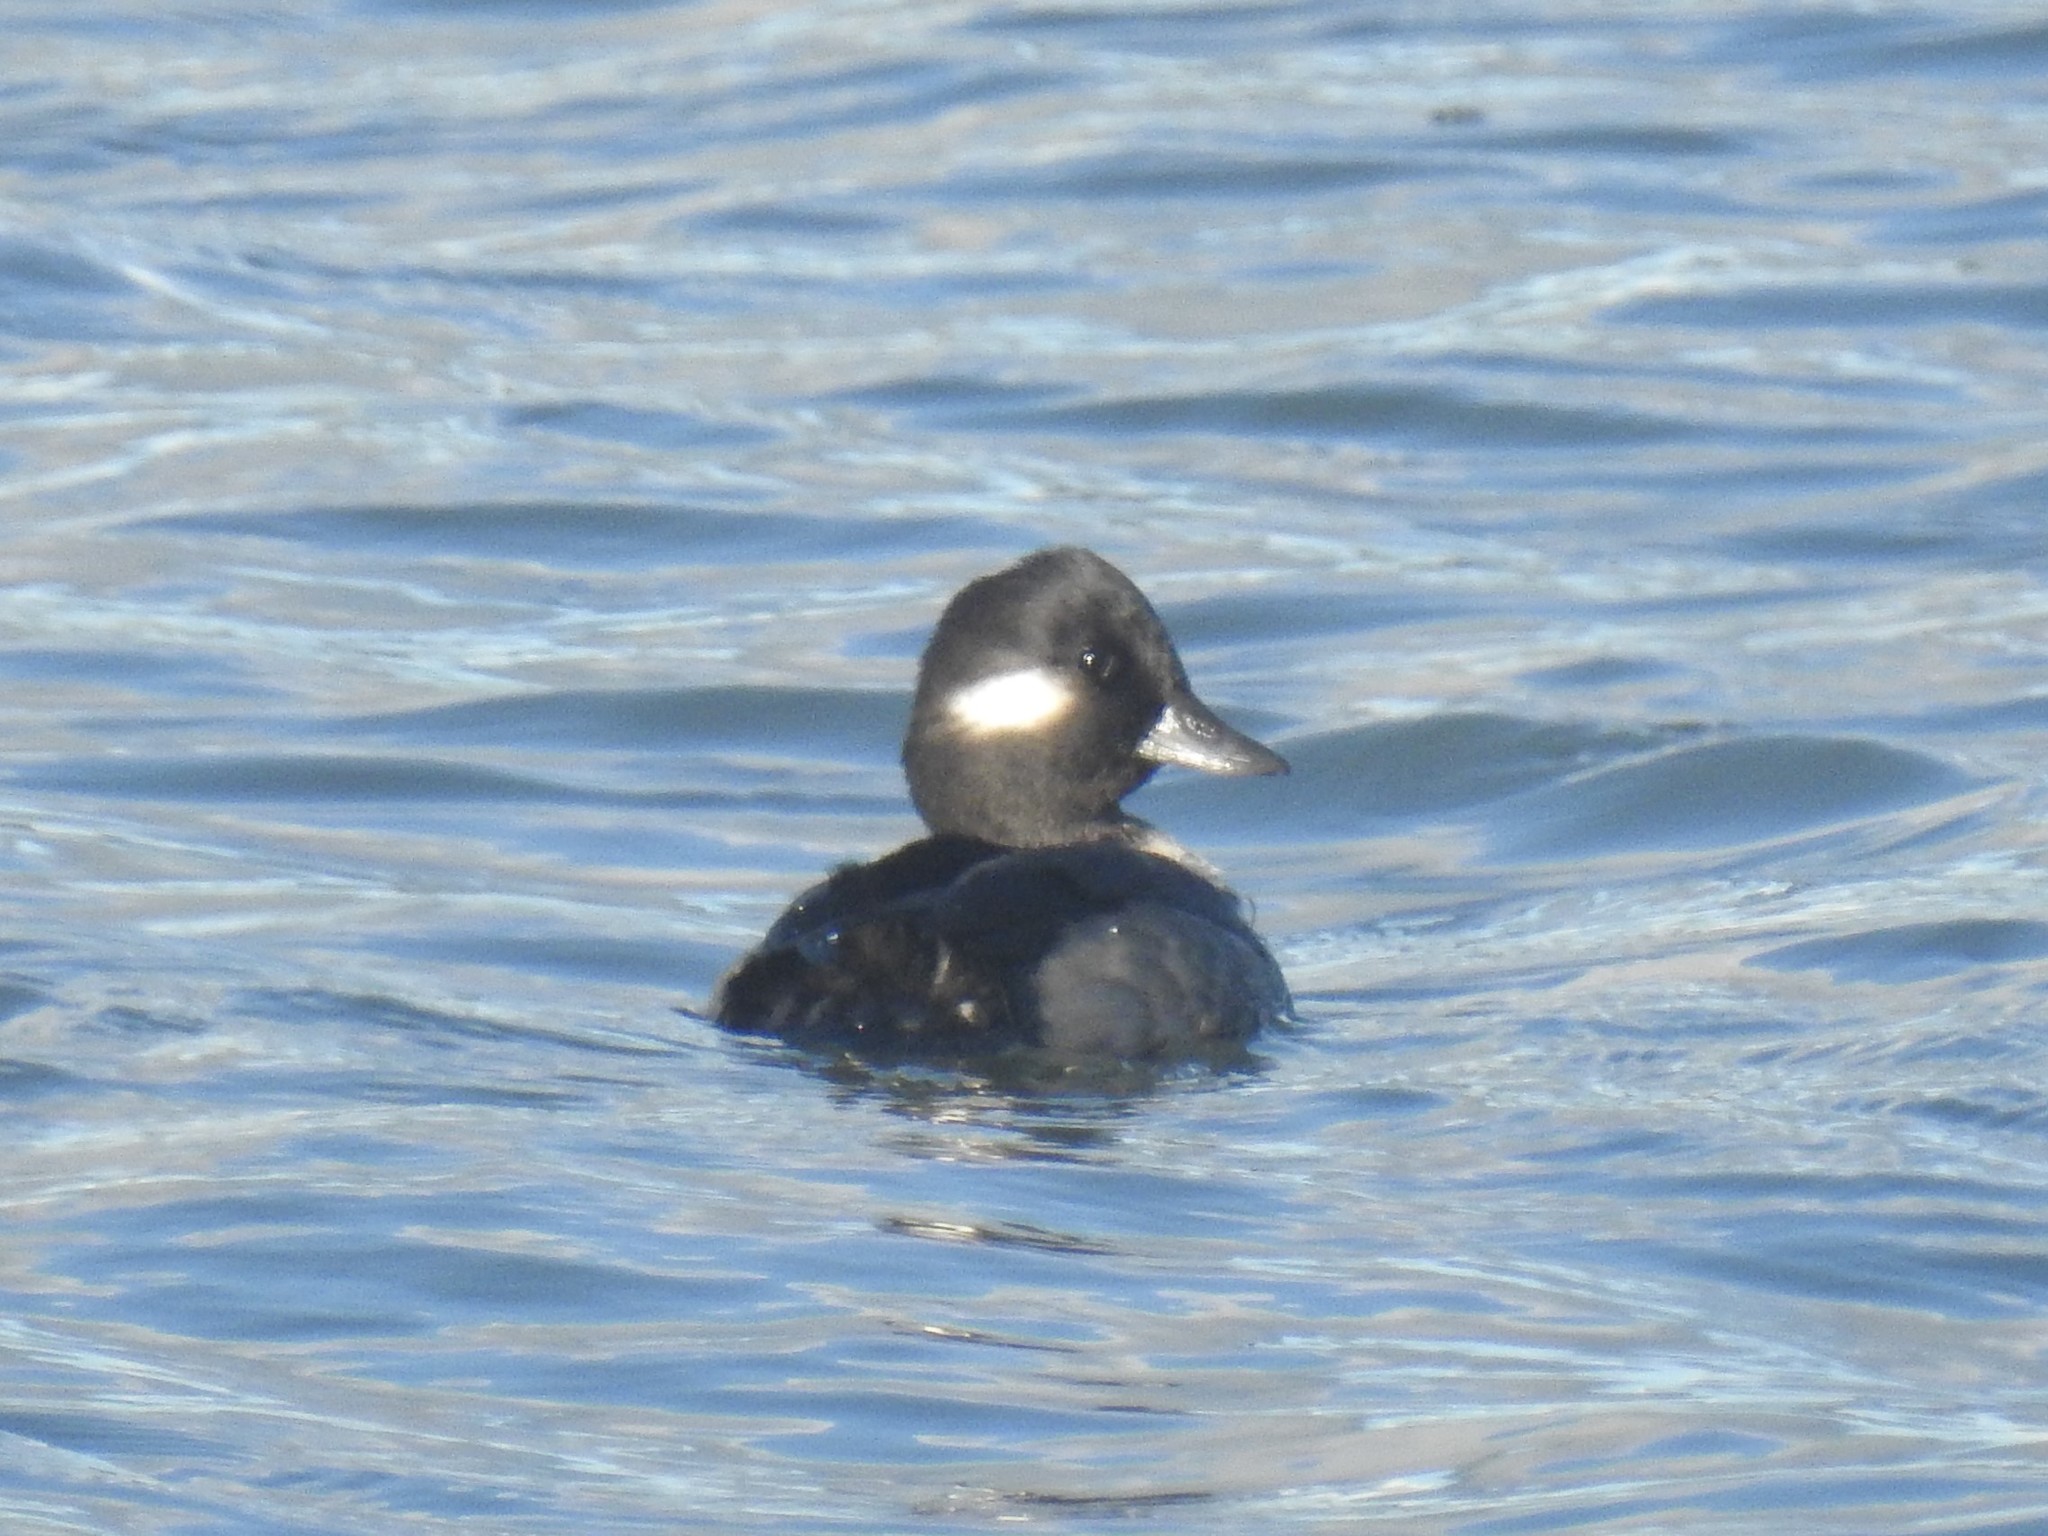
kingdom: Animalia
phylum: Chordata
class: Aves
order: Anseriformes
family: Anatidae
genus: Bucephala
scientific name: Bucephala albeola
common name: Bufflehead
